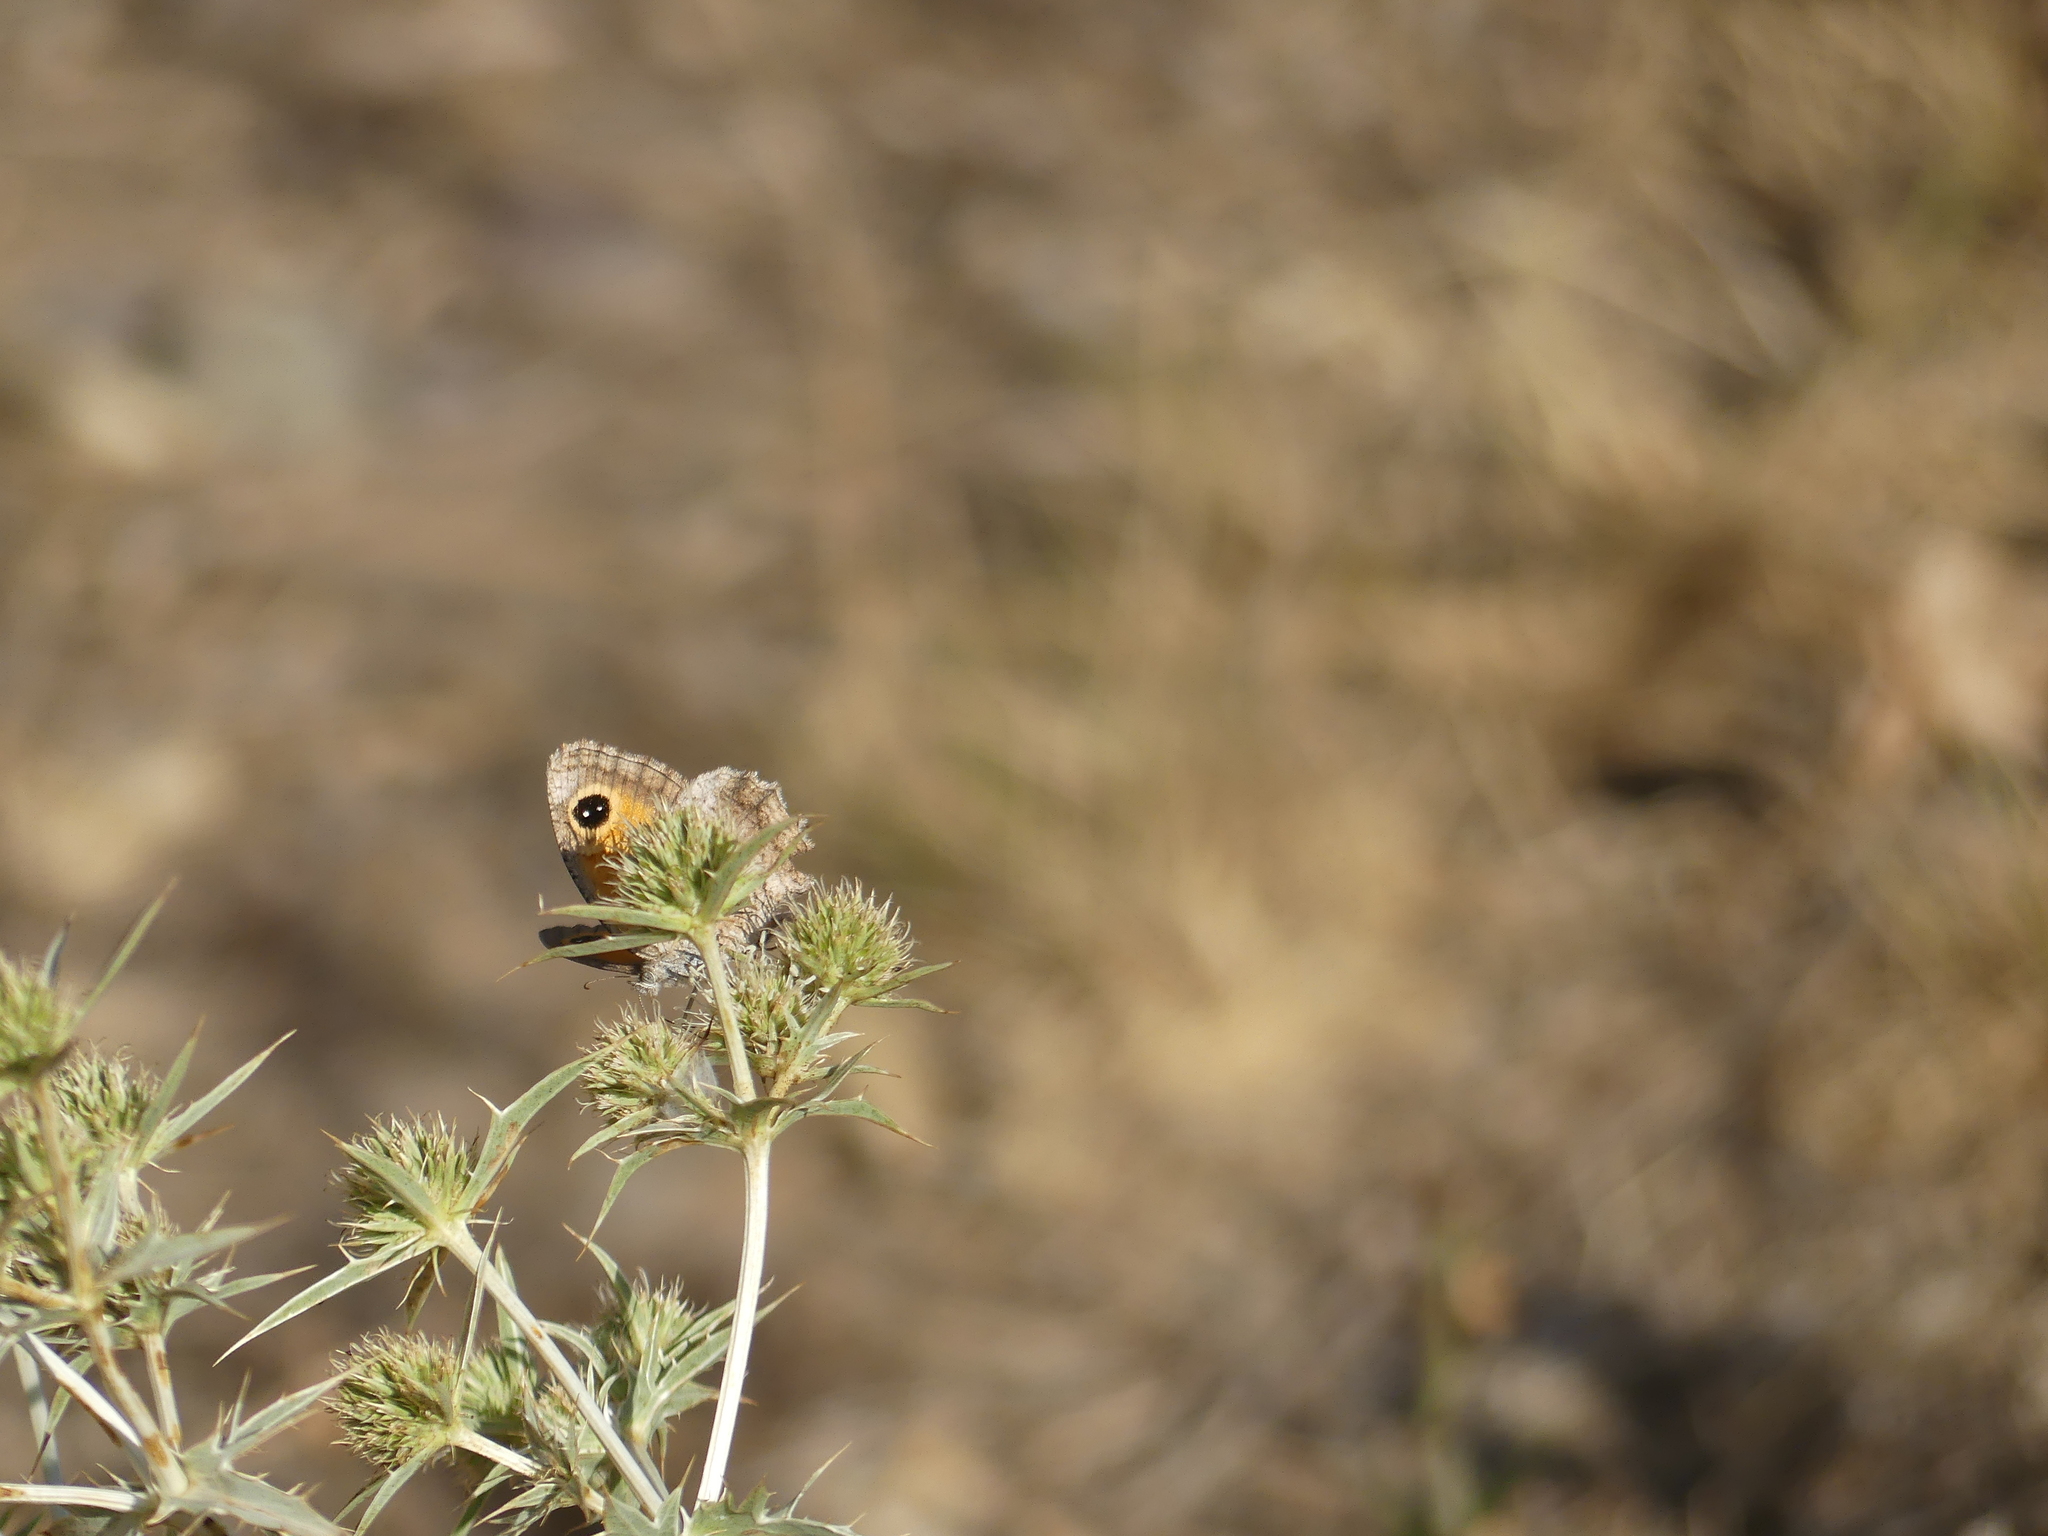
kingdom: Animalia
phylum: Arthropoda
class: Insecta
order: Lepidoptera
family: Nymphalidae
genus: Pyronia
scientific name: Pyronia cecilia
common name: Southern gatekeeper
